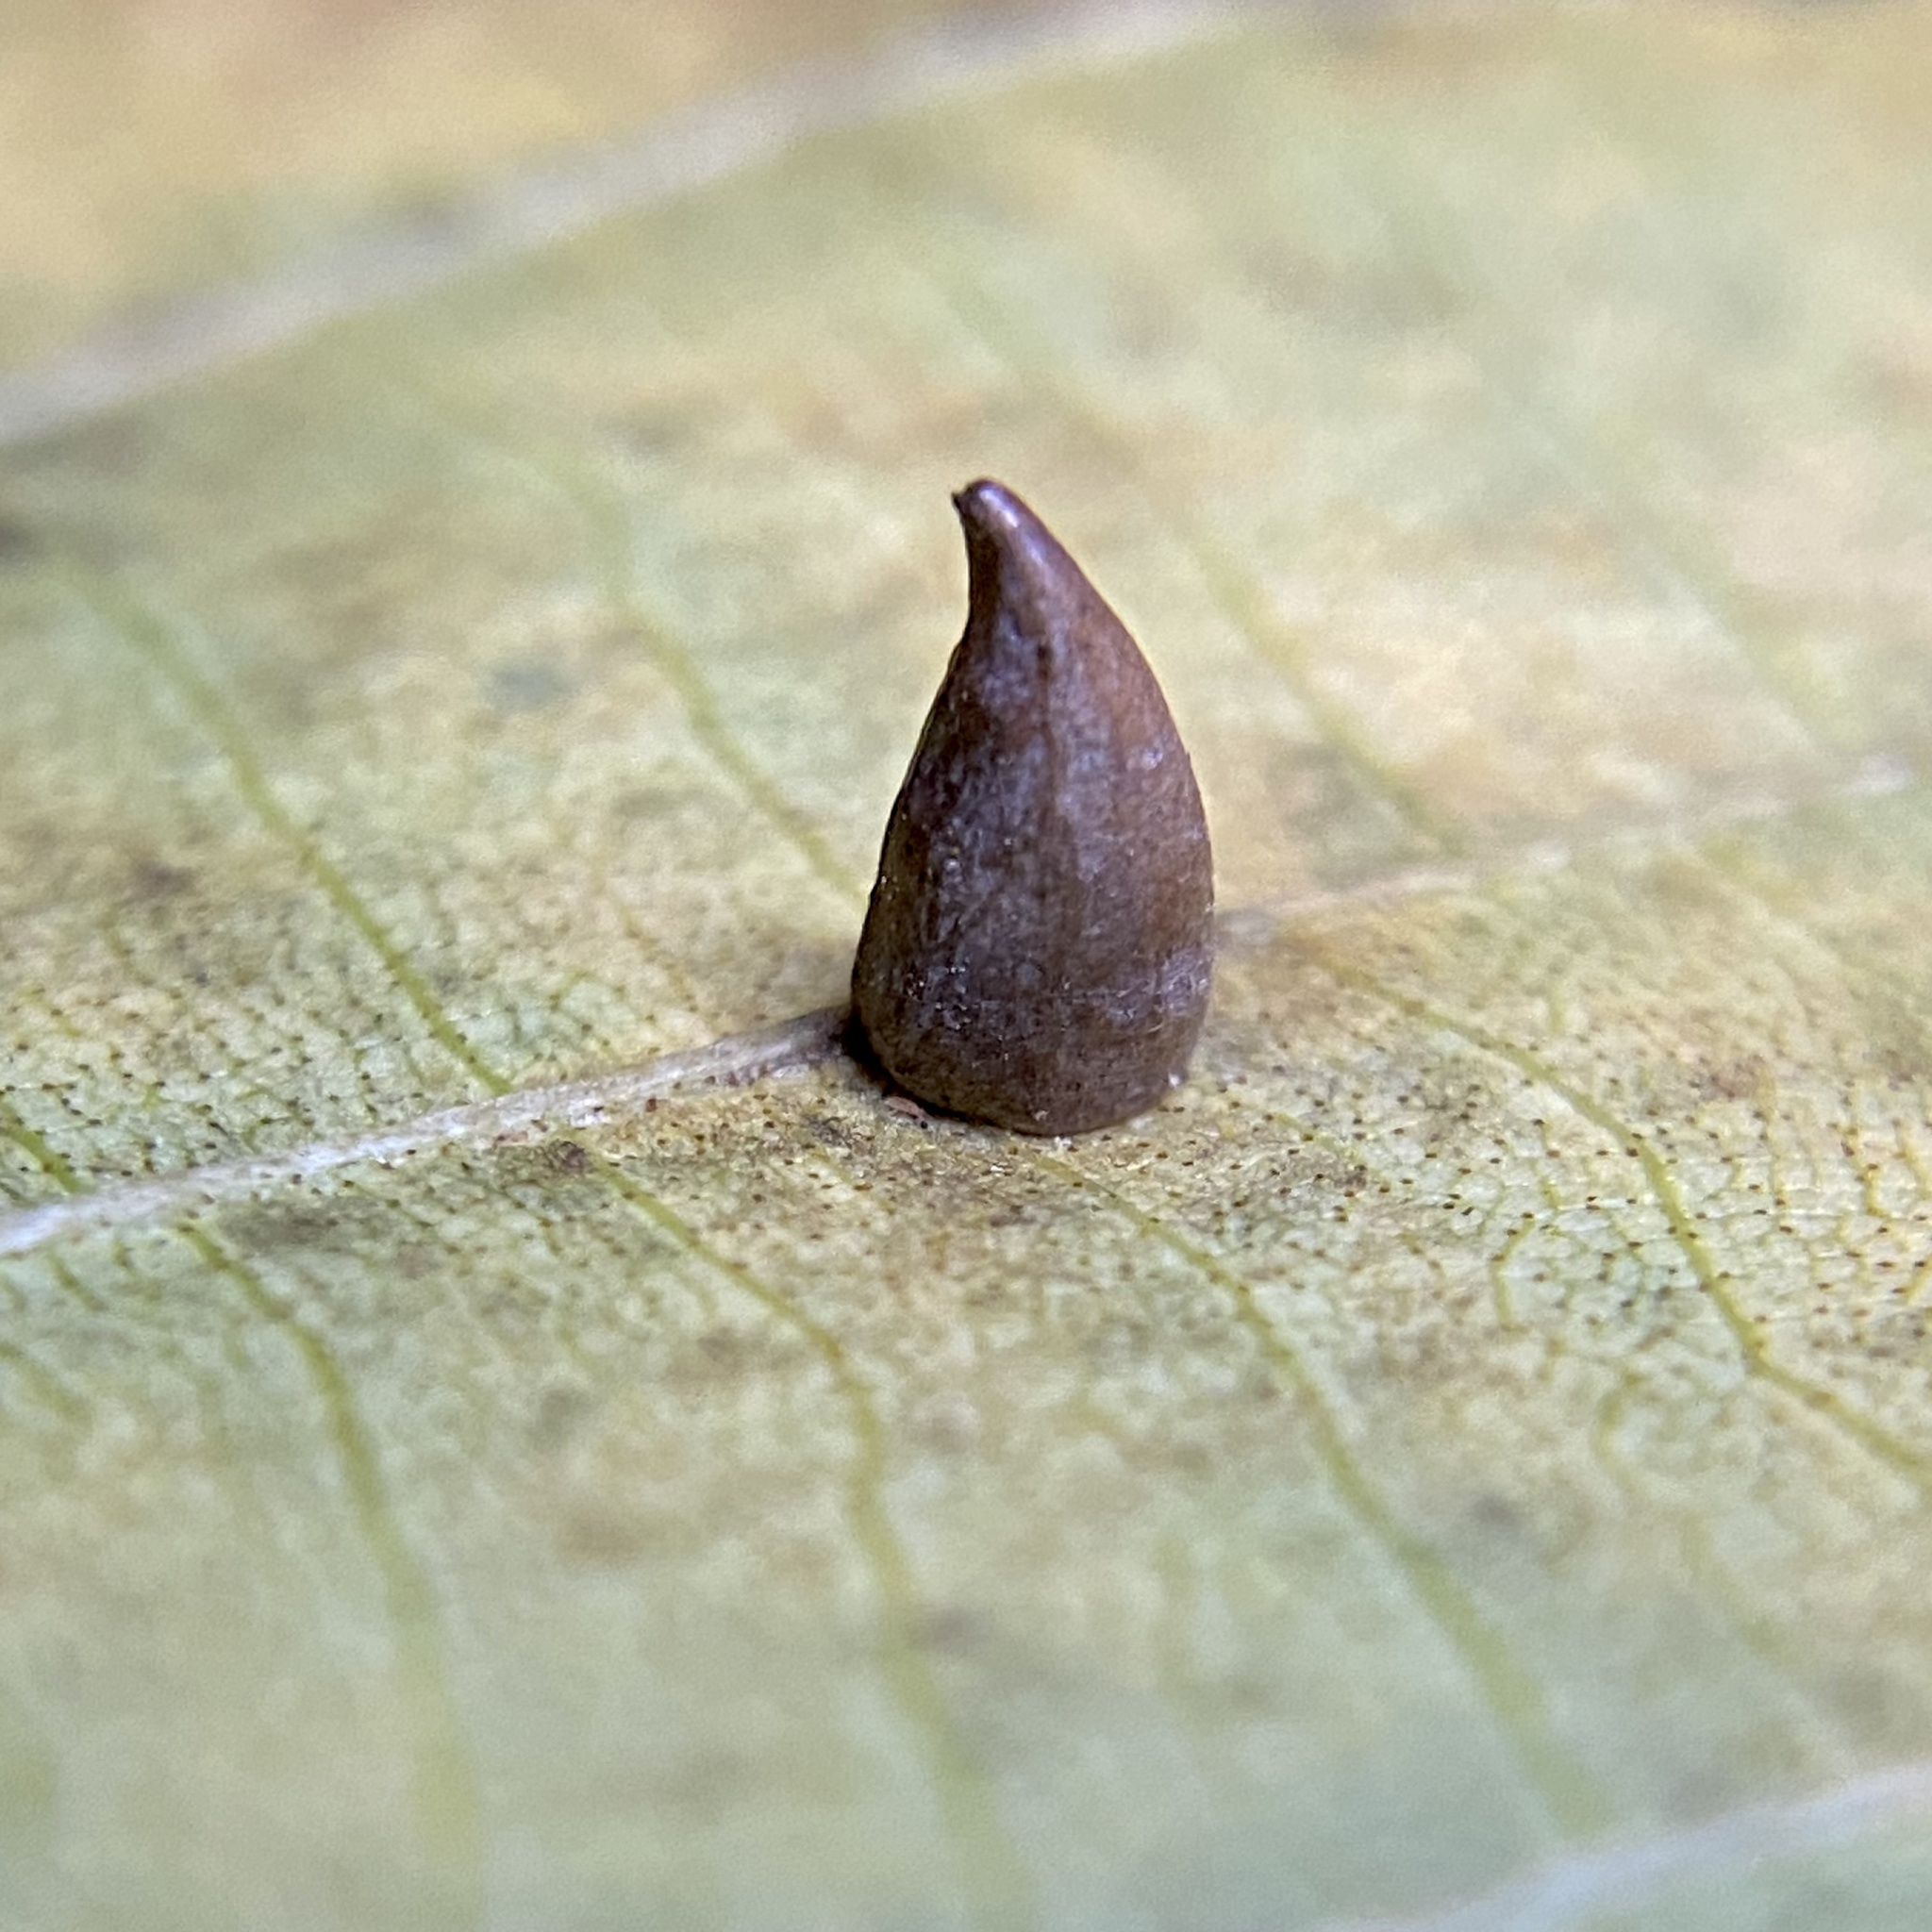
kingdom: Animalia
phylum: Arthropoda
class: Insecta
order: Diptera
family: Cecidomyiidae
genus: Caryomyia
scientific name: Caryomyia caryaecola
